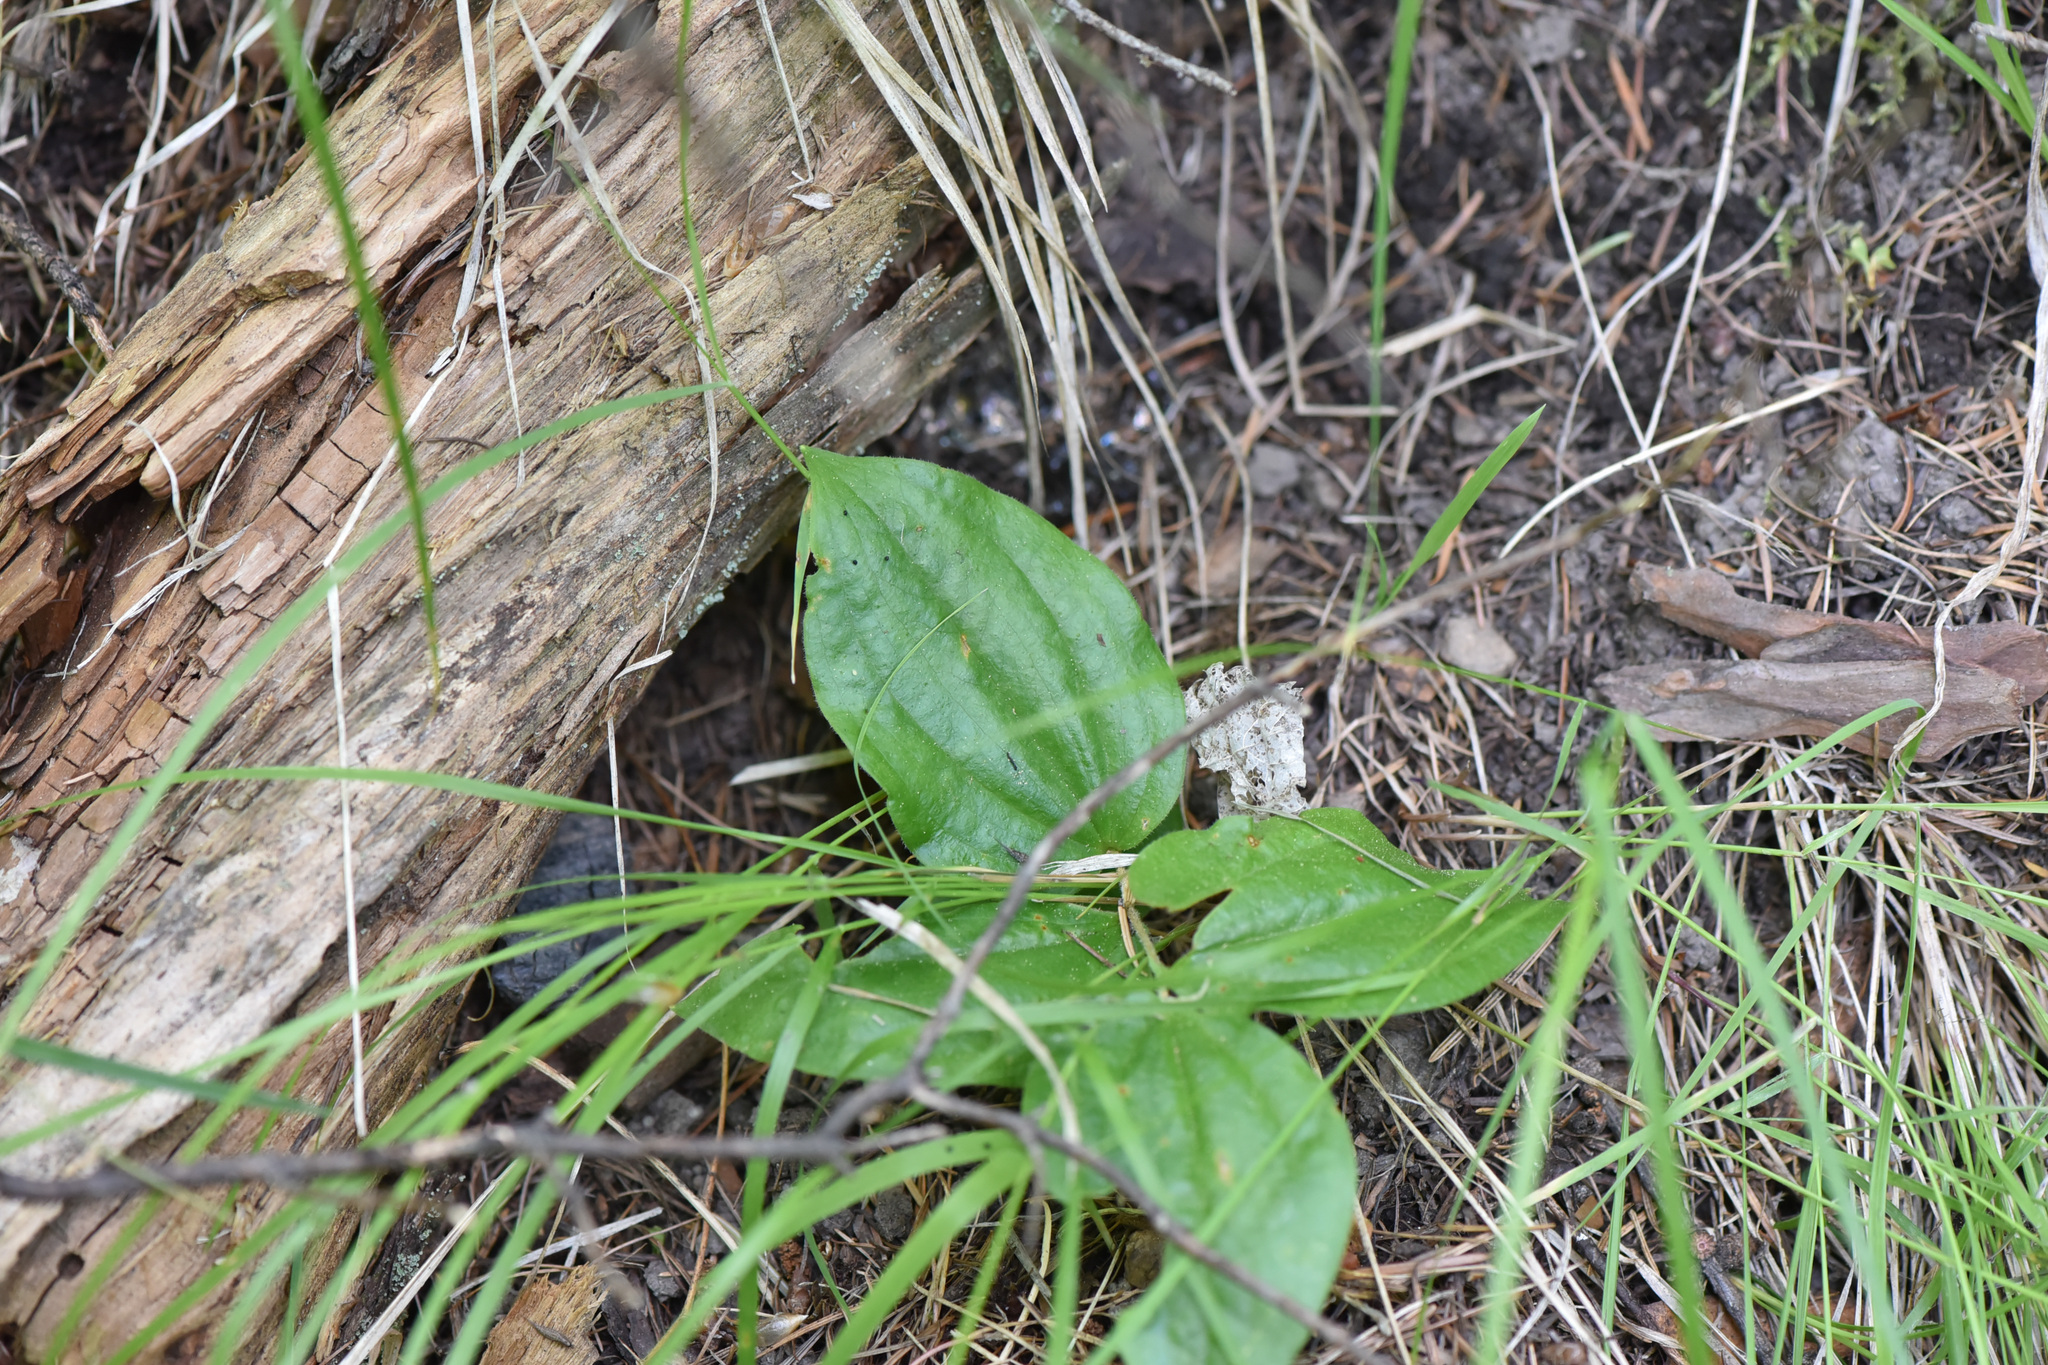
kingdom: Plantae
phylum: Tracheophyta
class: Liliopsida
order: Asparagales
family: Orchidaceae
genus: Calypso
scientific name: Calypso bulbosa
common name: Calypso
